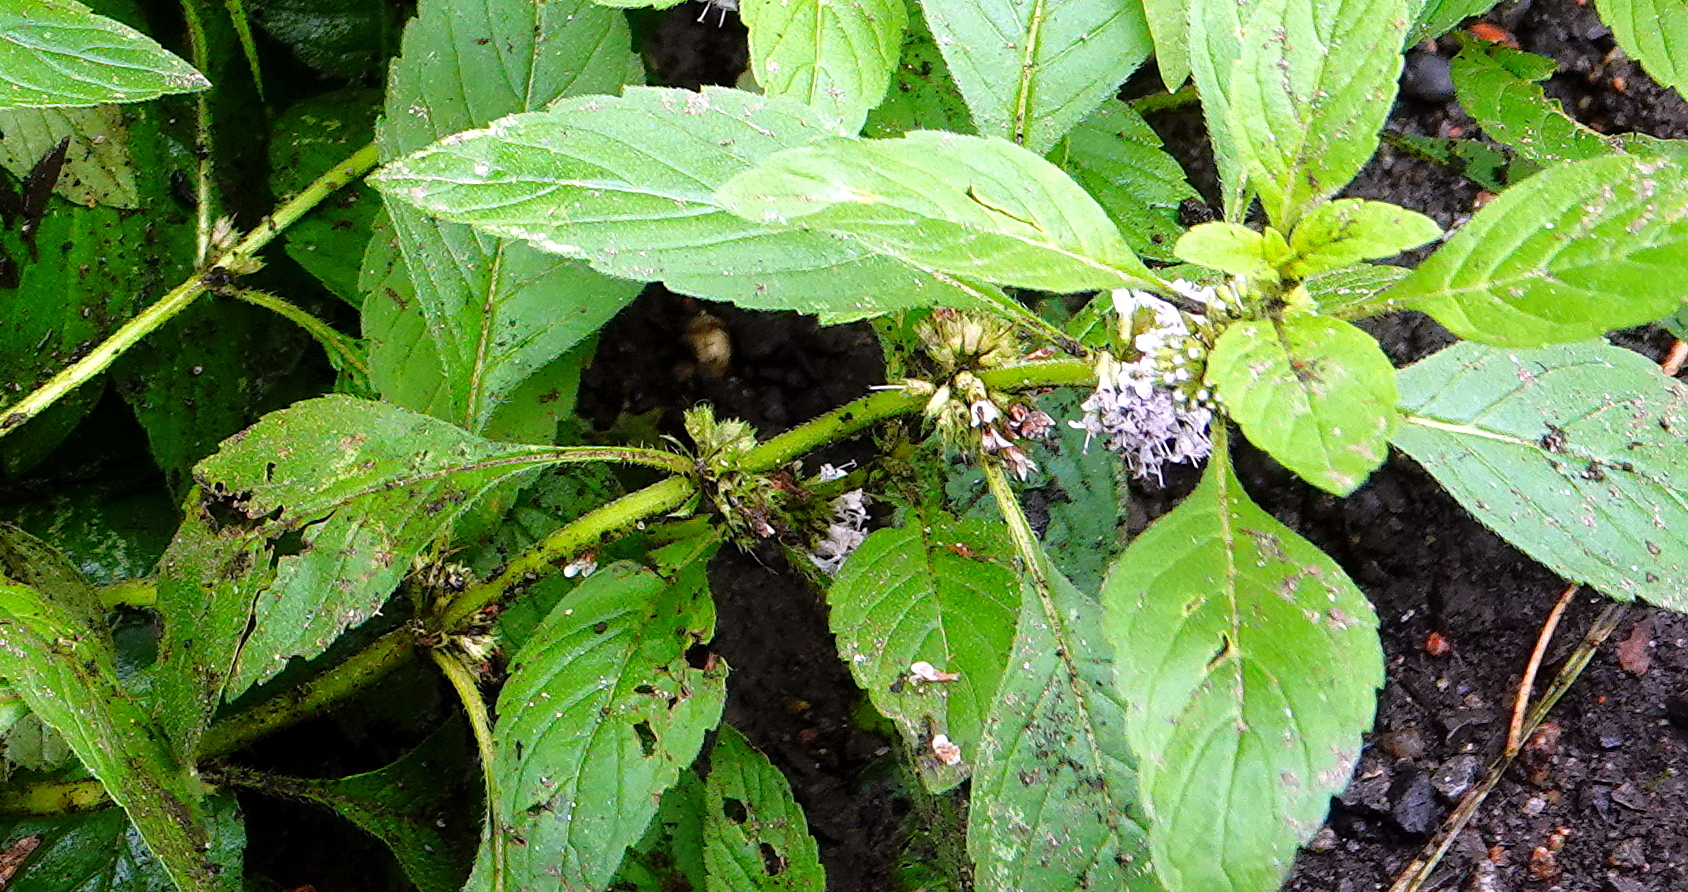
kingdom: Plantae
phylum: Tracheophyta
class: Magnoliopsida
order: Lamiales
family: Lamiaceae
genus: Mentha
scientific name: Mentha canadensis
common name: American corn mint
